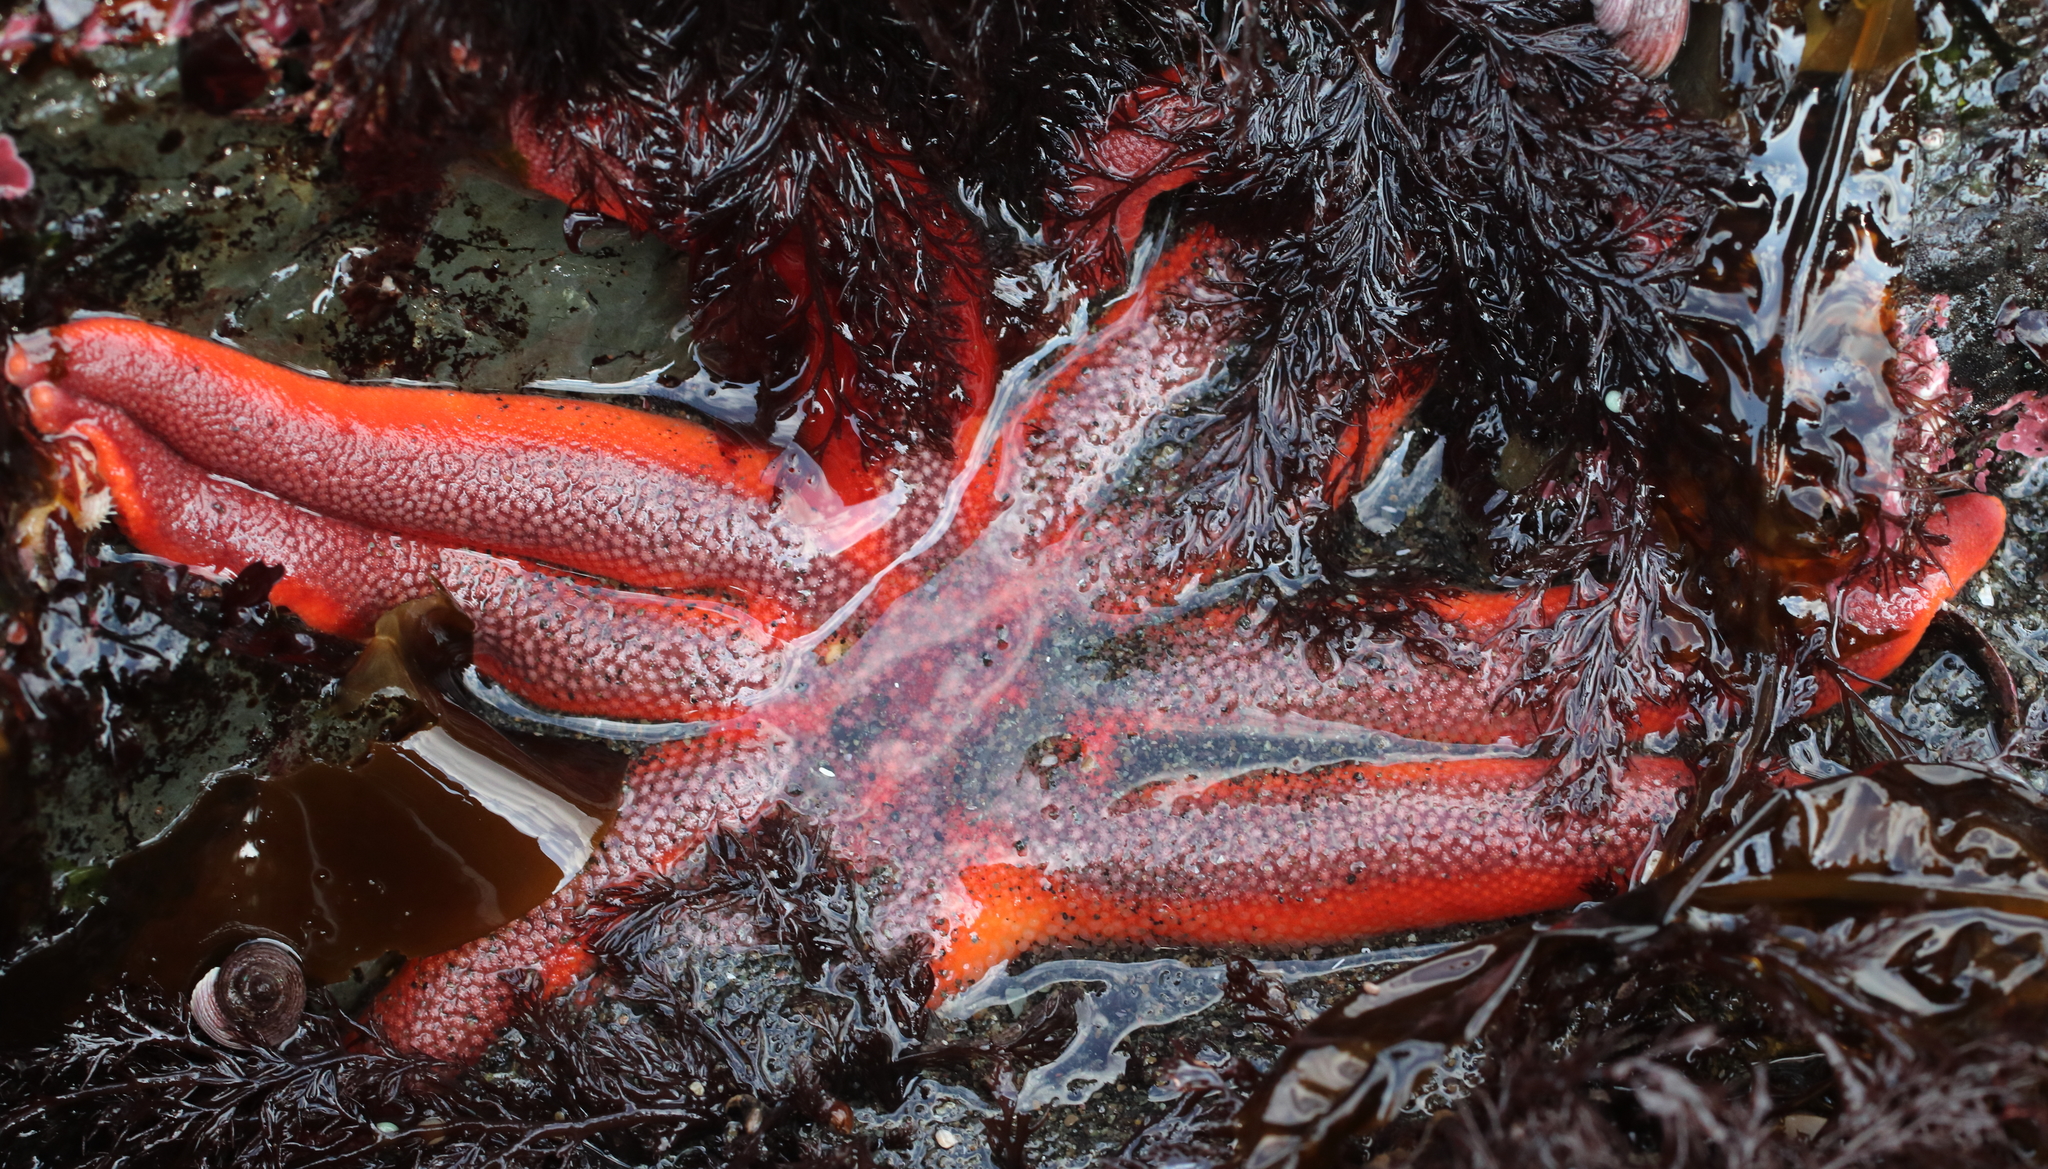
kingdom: Animalia
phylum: Echinodermata
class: Asteroidea
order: Valvatida
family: Solasteridae
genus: Solaster
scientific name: Solaster stimpsoni
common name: Orange sun star
